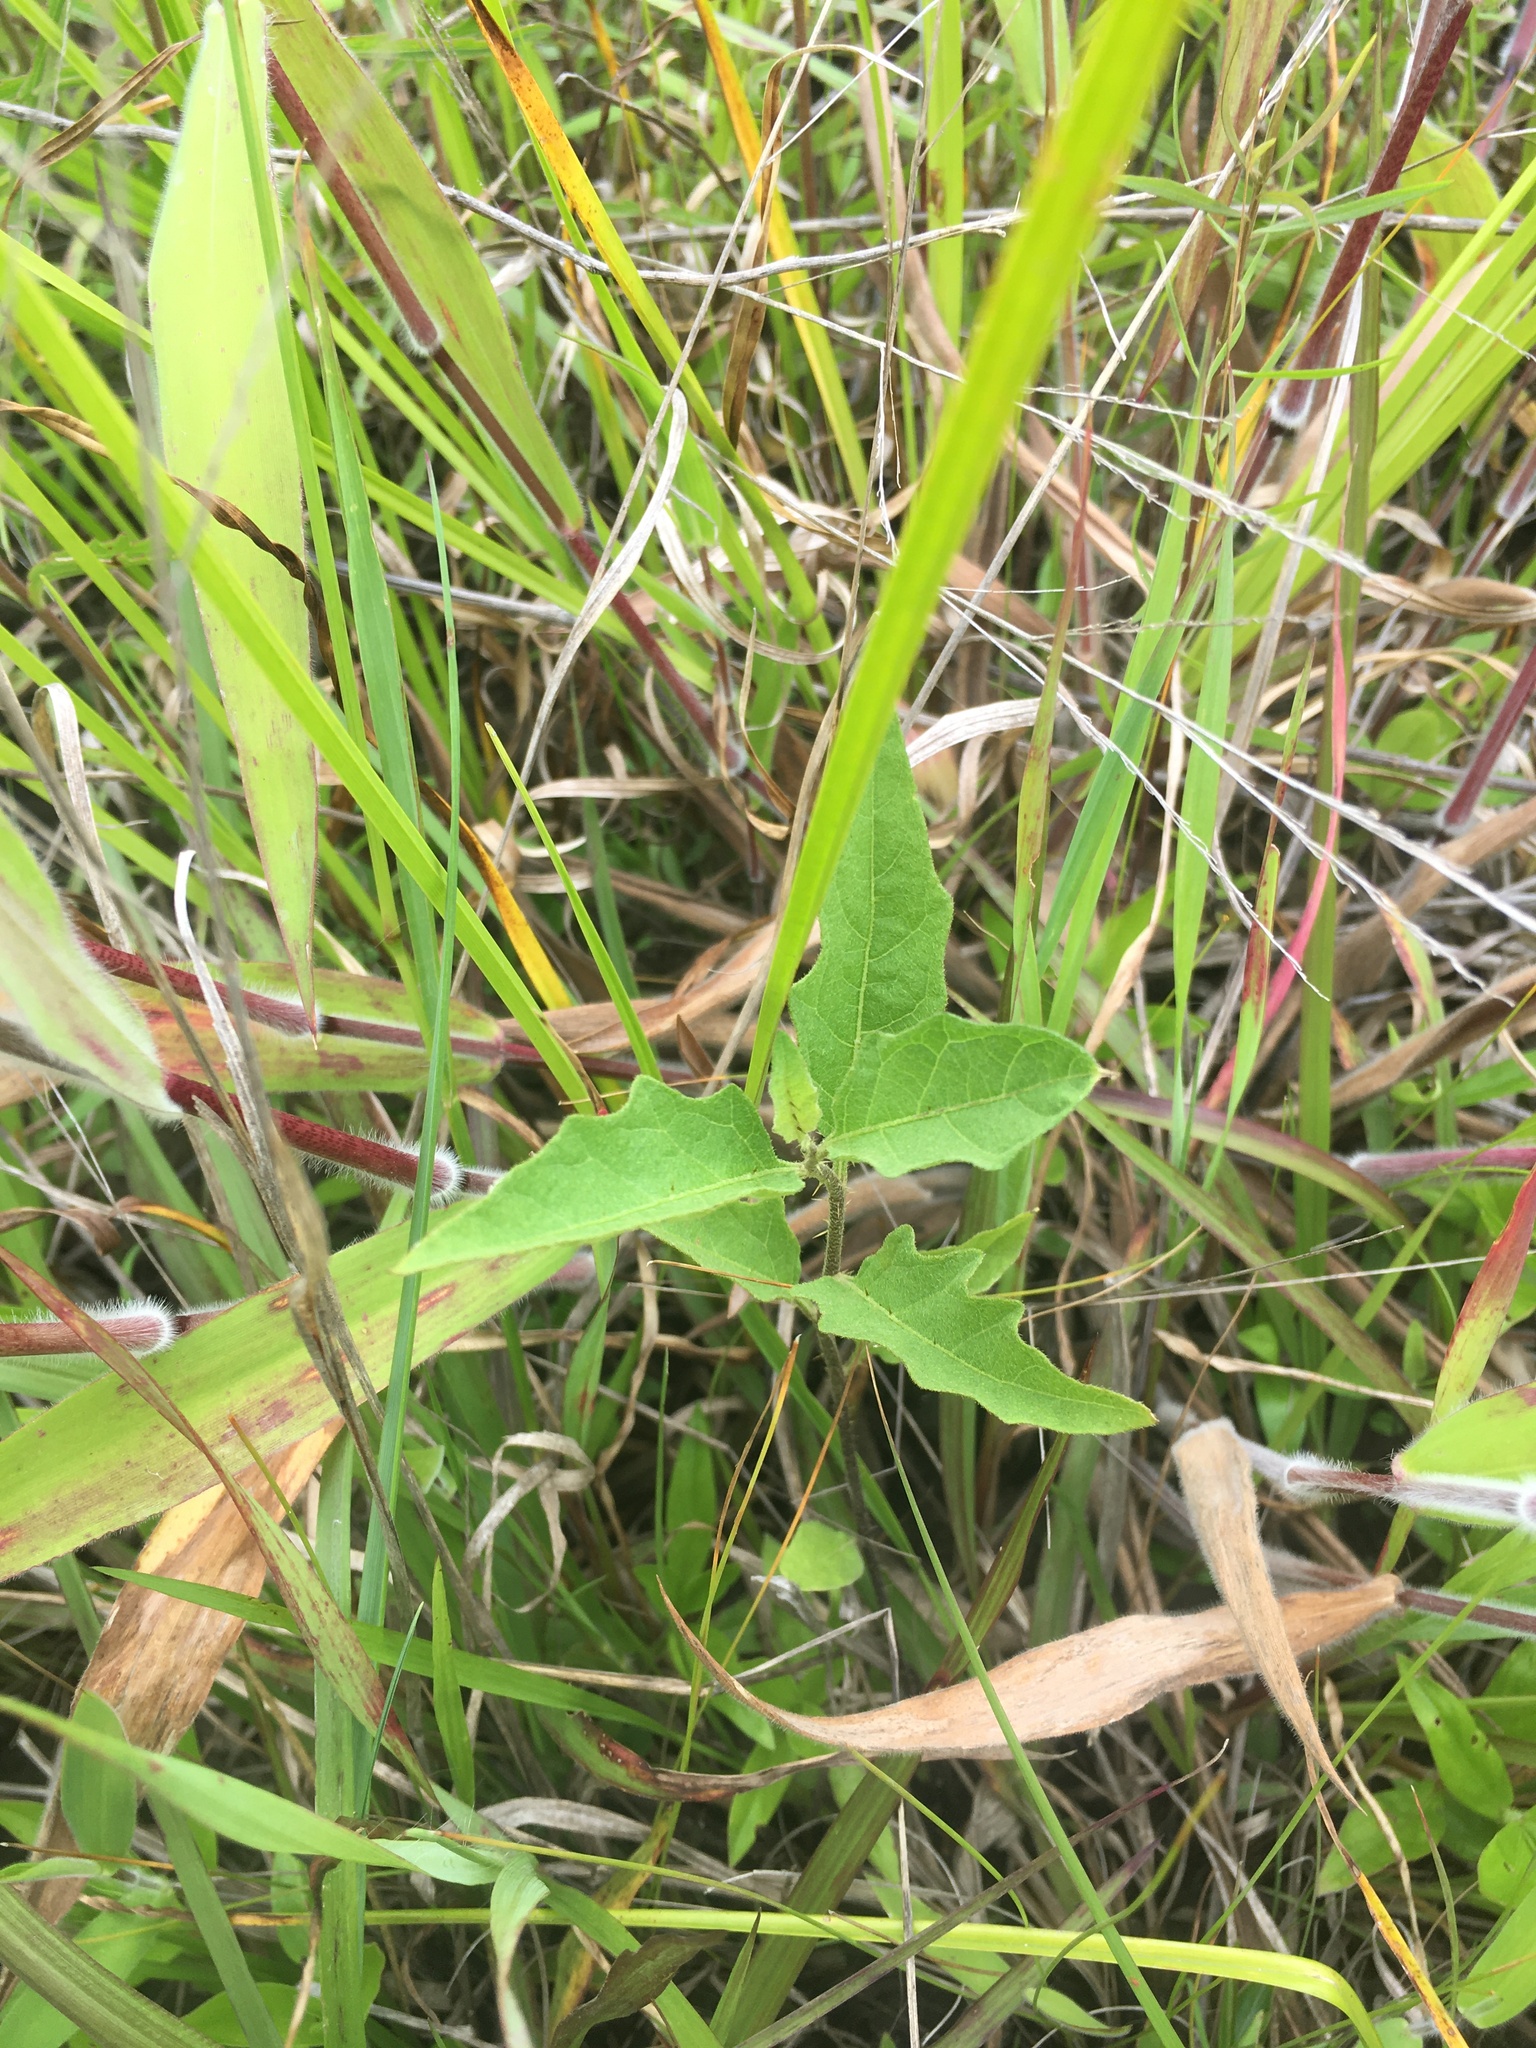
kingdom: Plantae
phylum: Tracheophyta
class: Magnoliopsida
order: Solanales
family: Solanaceae
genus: Solanum
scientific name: Solanum carolinense
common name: Horse-nettle
